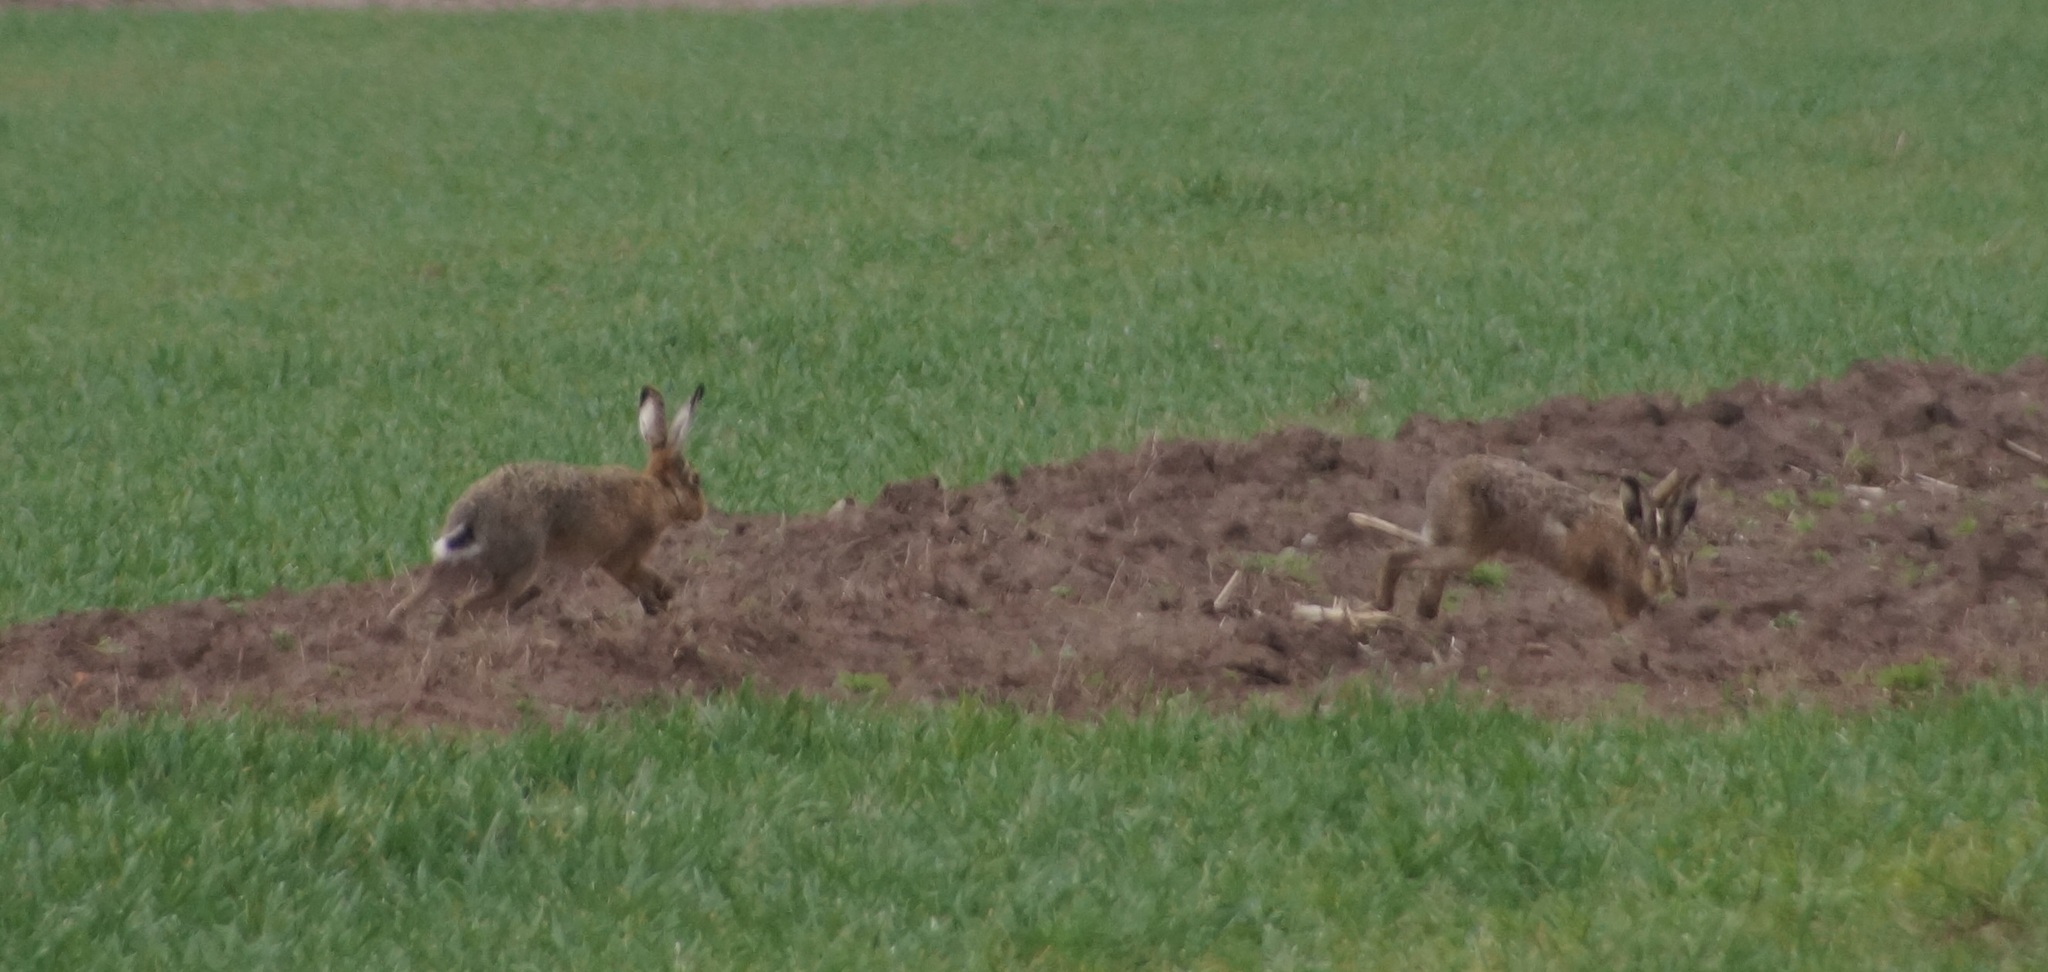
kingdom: Animalia
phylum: Chordata
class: Mammalia
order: Lagomorpha
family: Leporidae
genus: Lepus
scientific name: Lepus europaeus
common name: European hare
